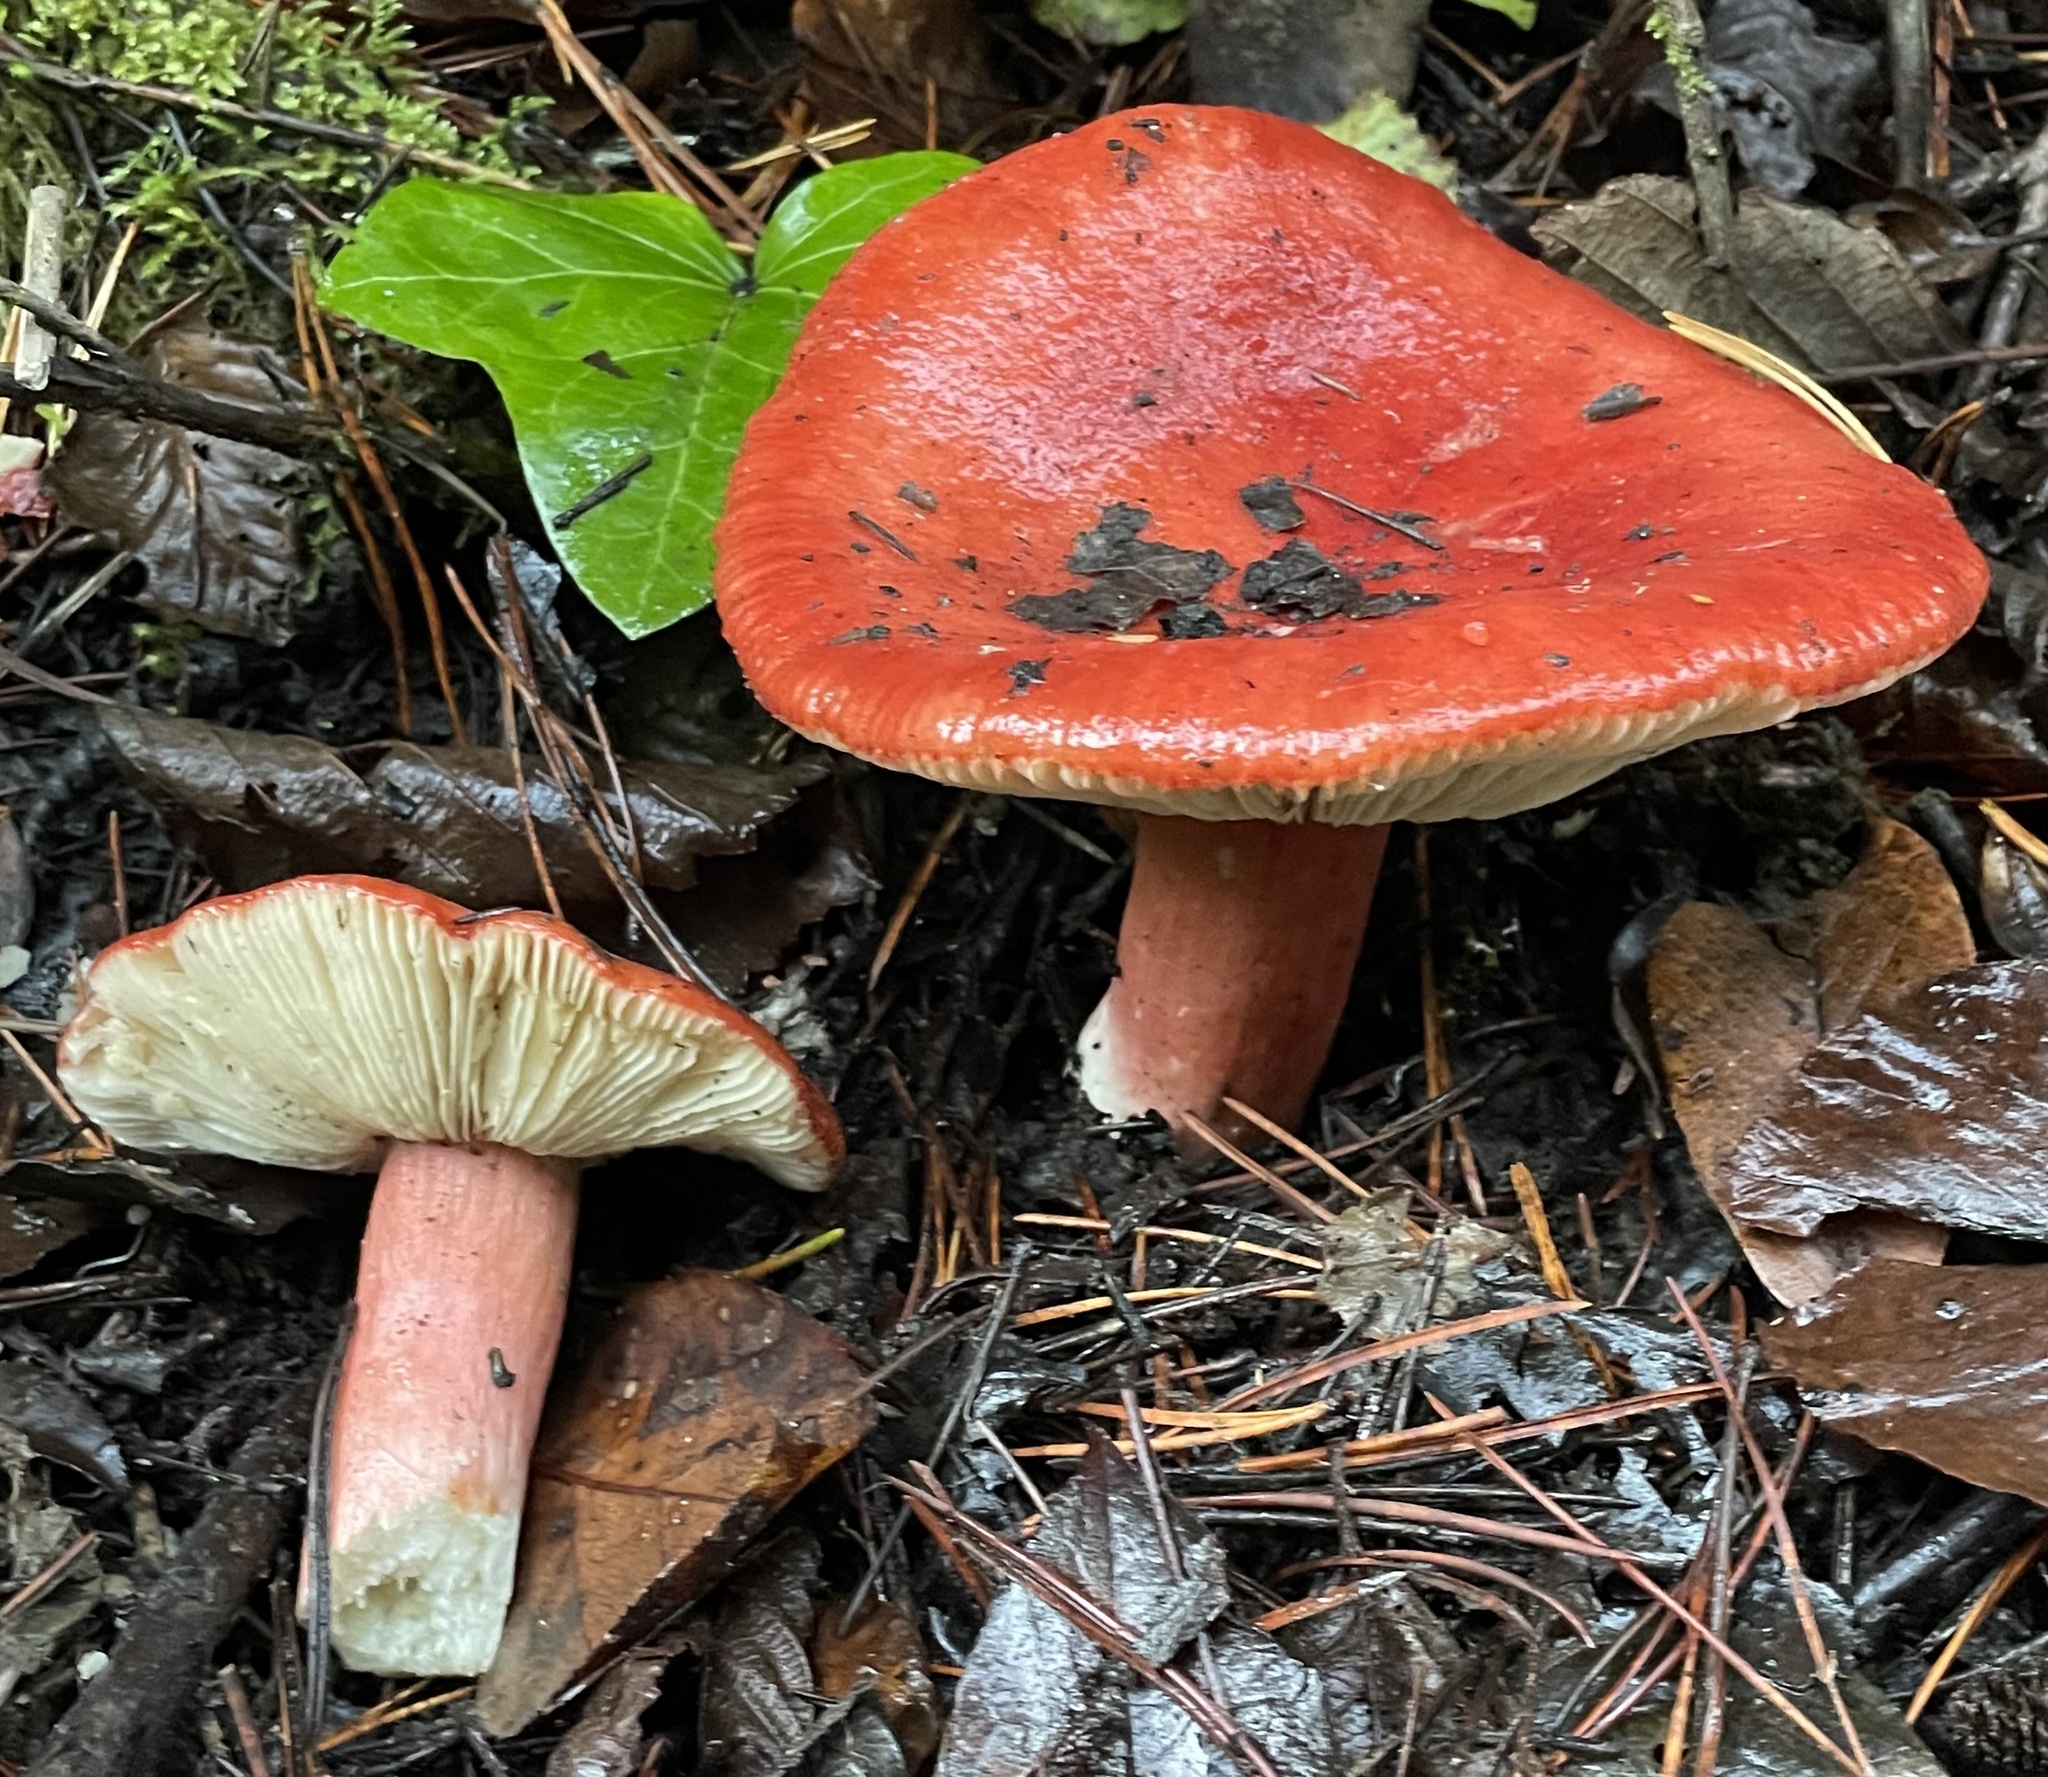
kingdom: Fungi
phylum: Basidiomycota
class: Agaricomycetes
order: Russulales
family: Russulaceae
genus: Russula
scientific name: Russula rhodocephala
